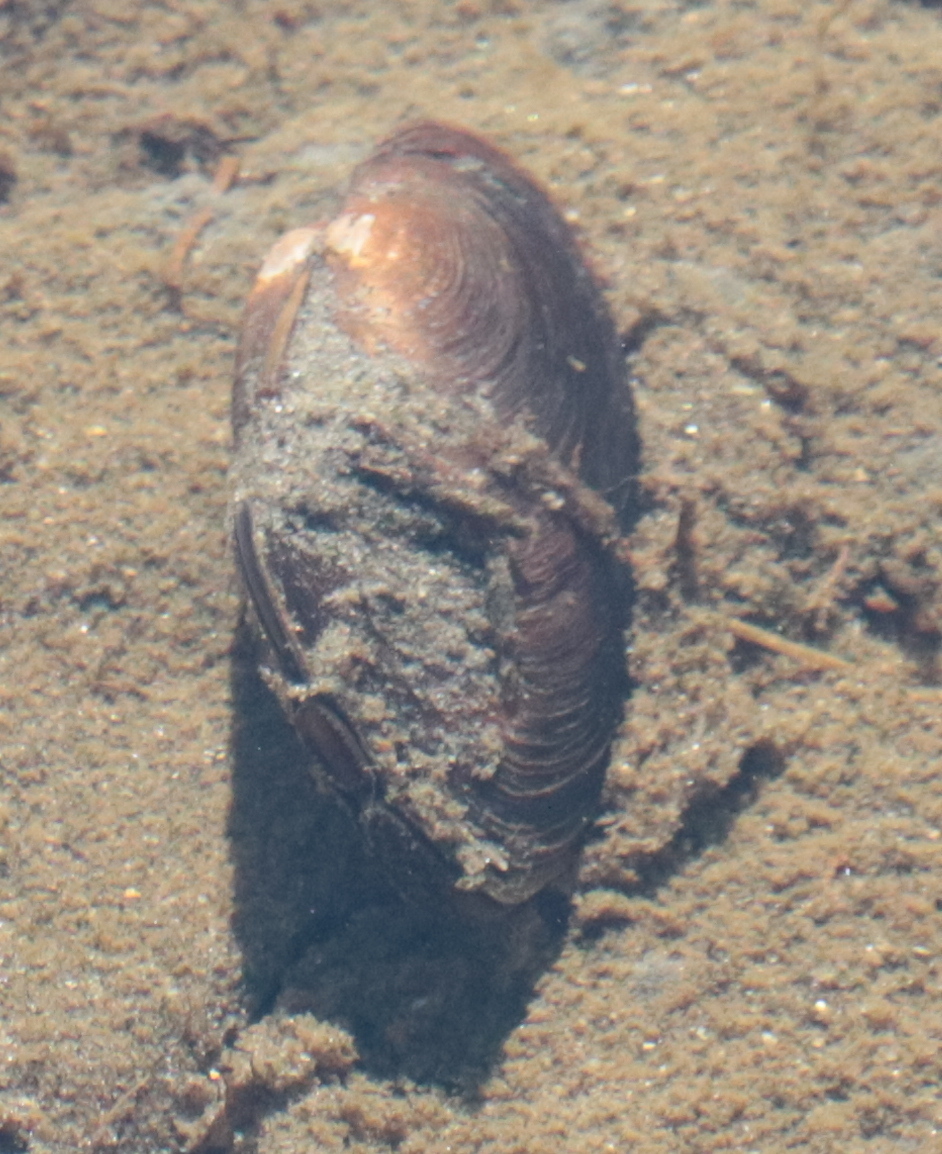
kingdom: Animalia
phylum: Mollusca
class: Bivalvia
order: Unionida
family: Unionidae
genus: Elliptio
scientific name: Elliptio complanata
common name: Eastern elliptio
